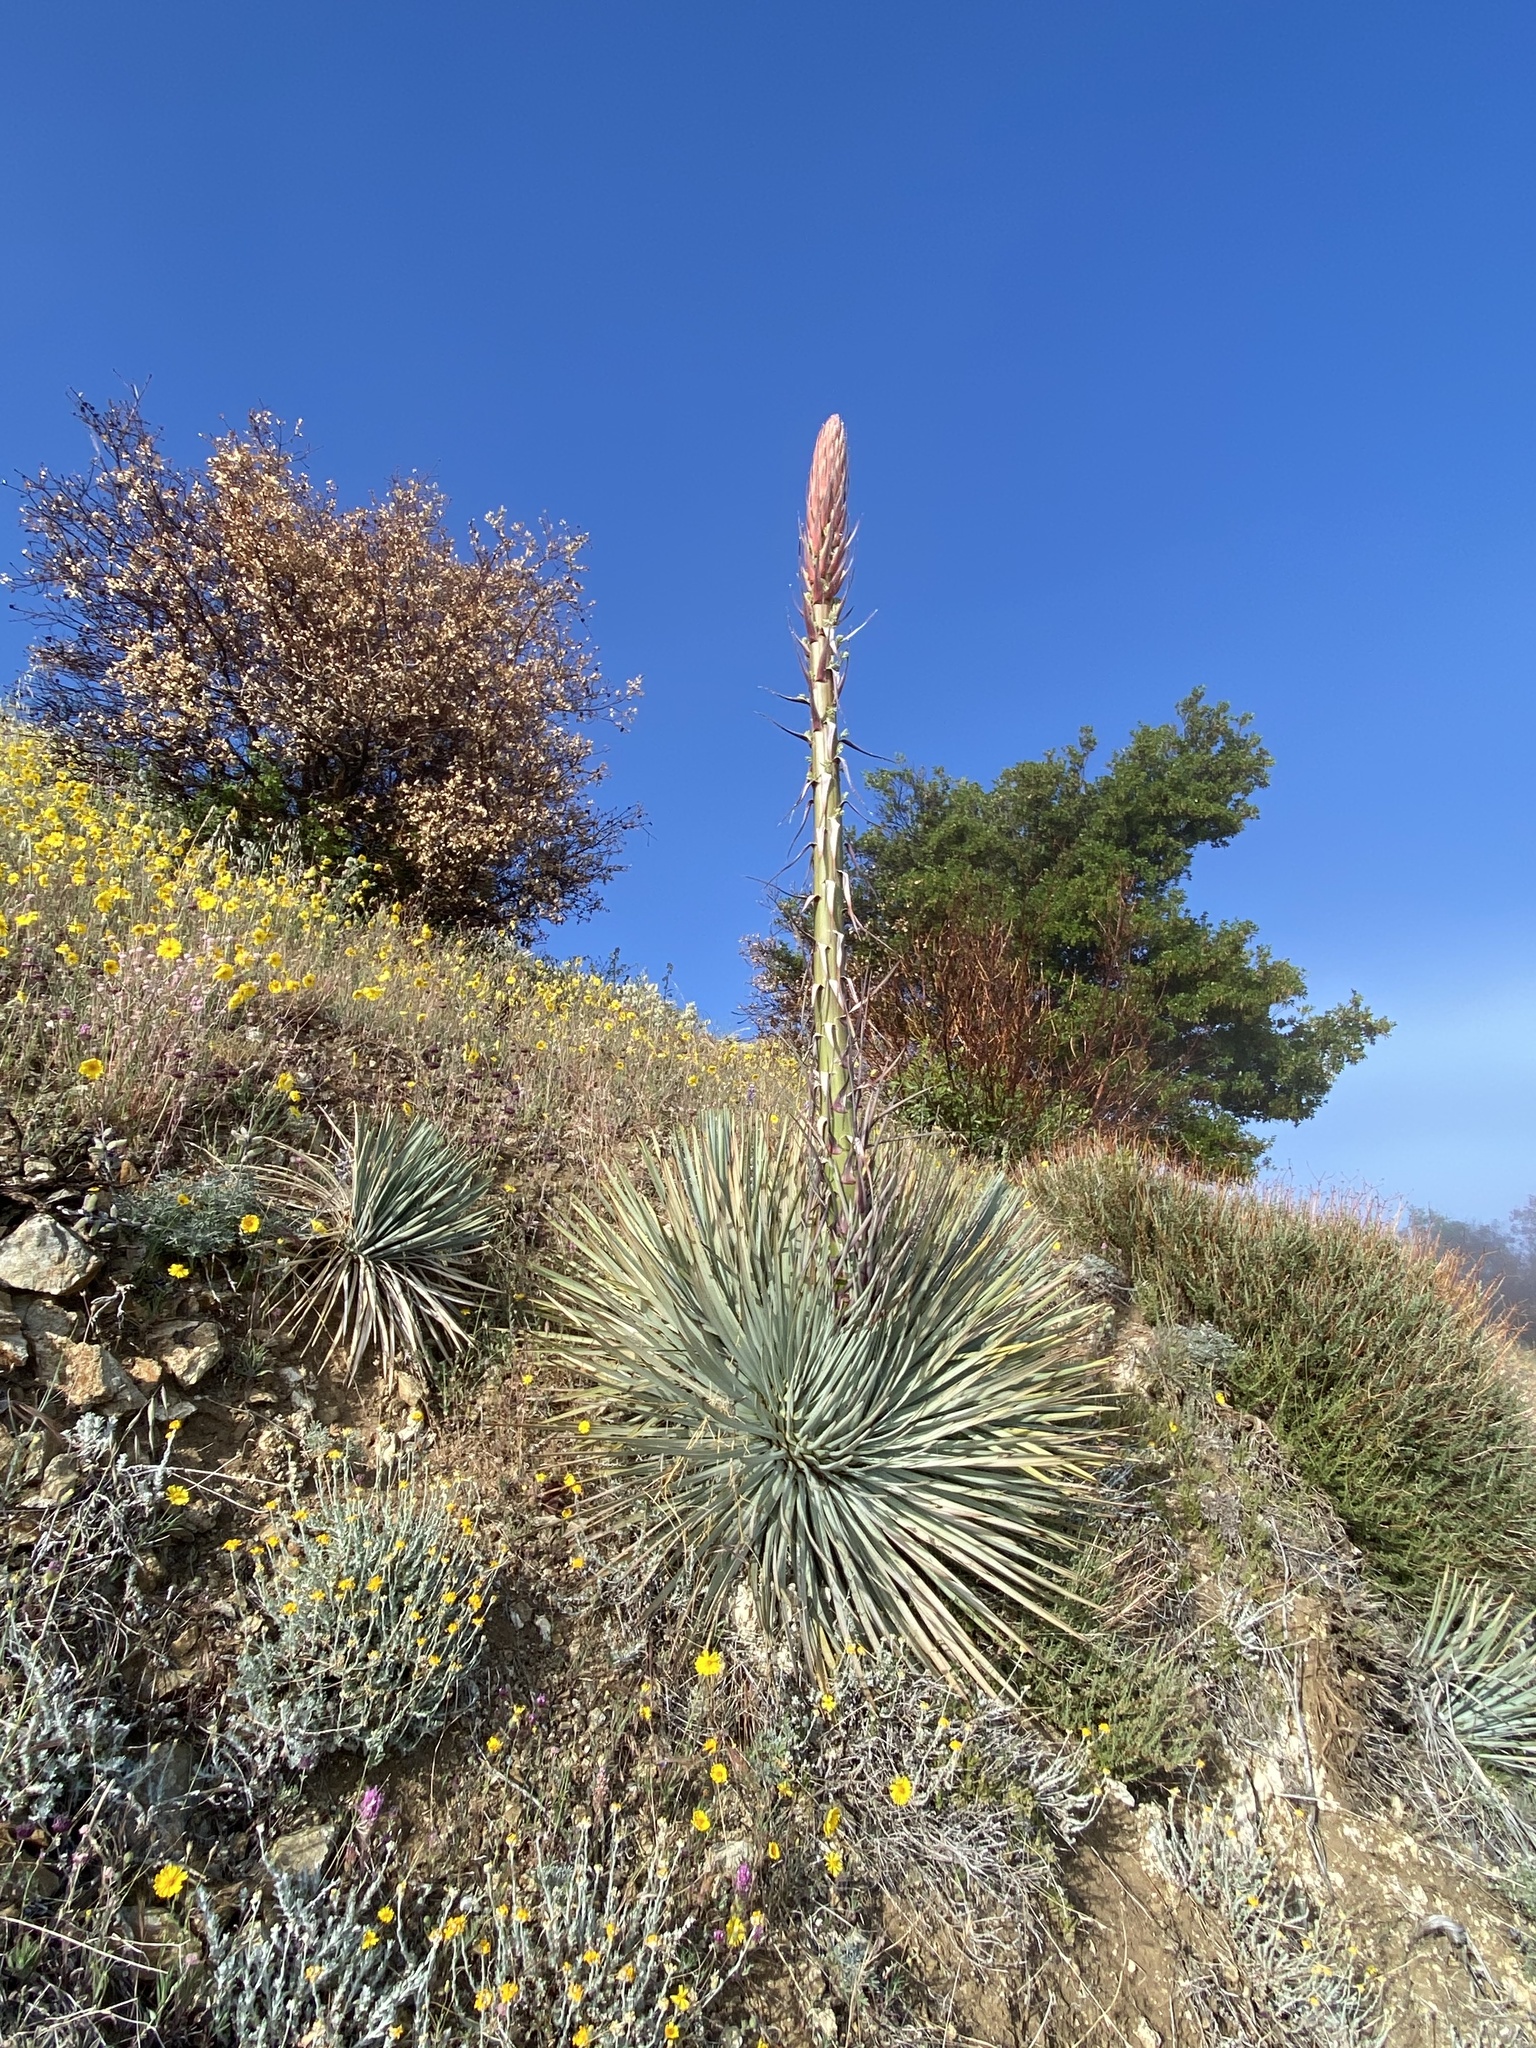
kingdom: Plantae
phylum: Tracheophyta
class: Liliopsida
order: Asparagales
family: Asparagaceae
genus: Hesperoyucca
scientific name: Hesperoyucca whipplei
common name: Our lord's-candle
